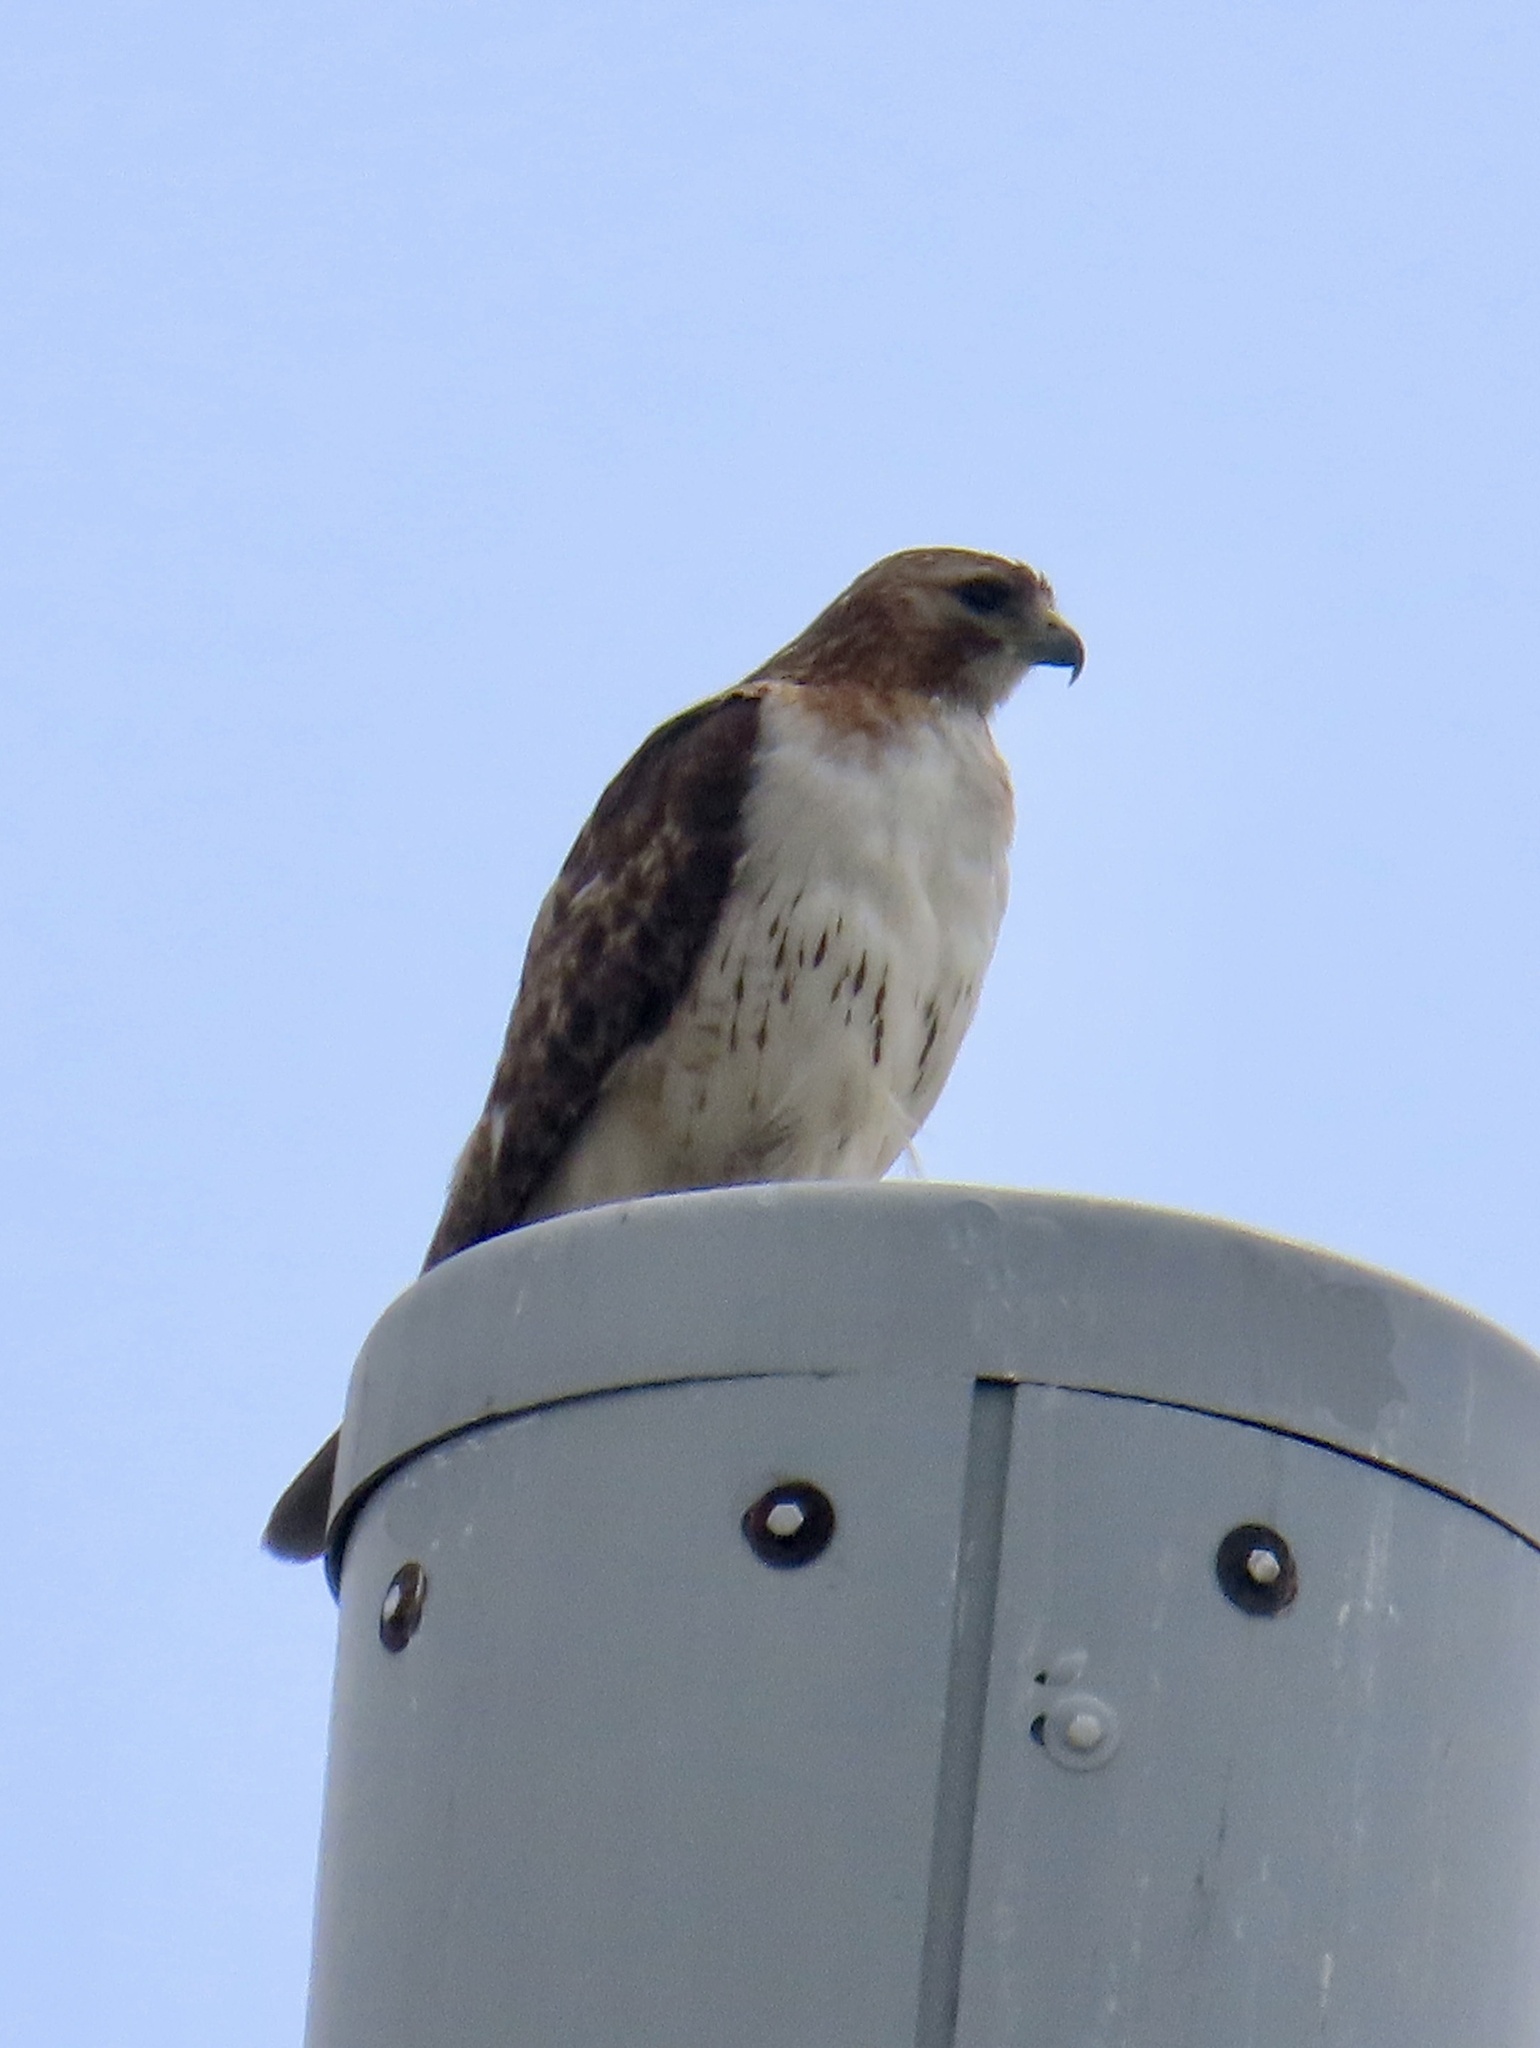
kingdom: Animalia
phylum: Chordata
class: Aves
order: Accipitriformes
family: Accipitridae
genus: Buteo
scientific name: Buteo jamaicensis
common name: Red-tailed hawk
